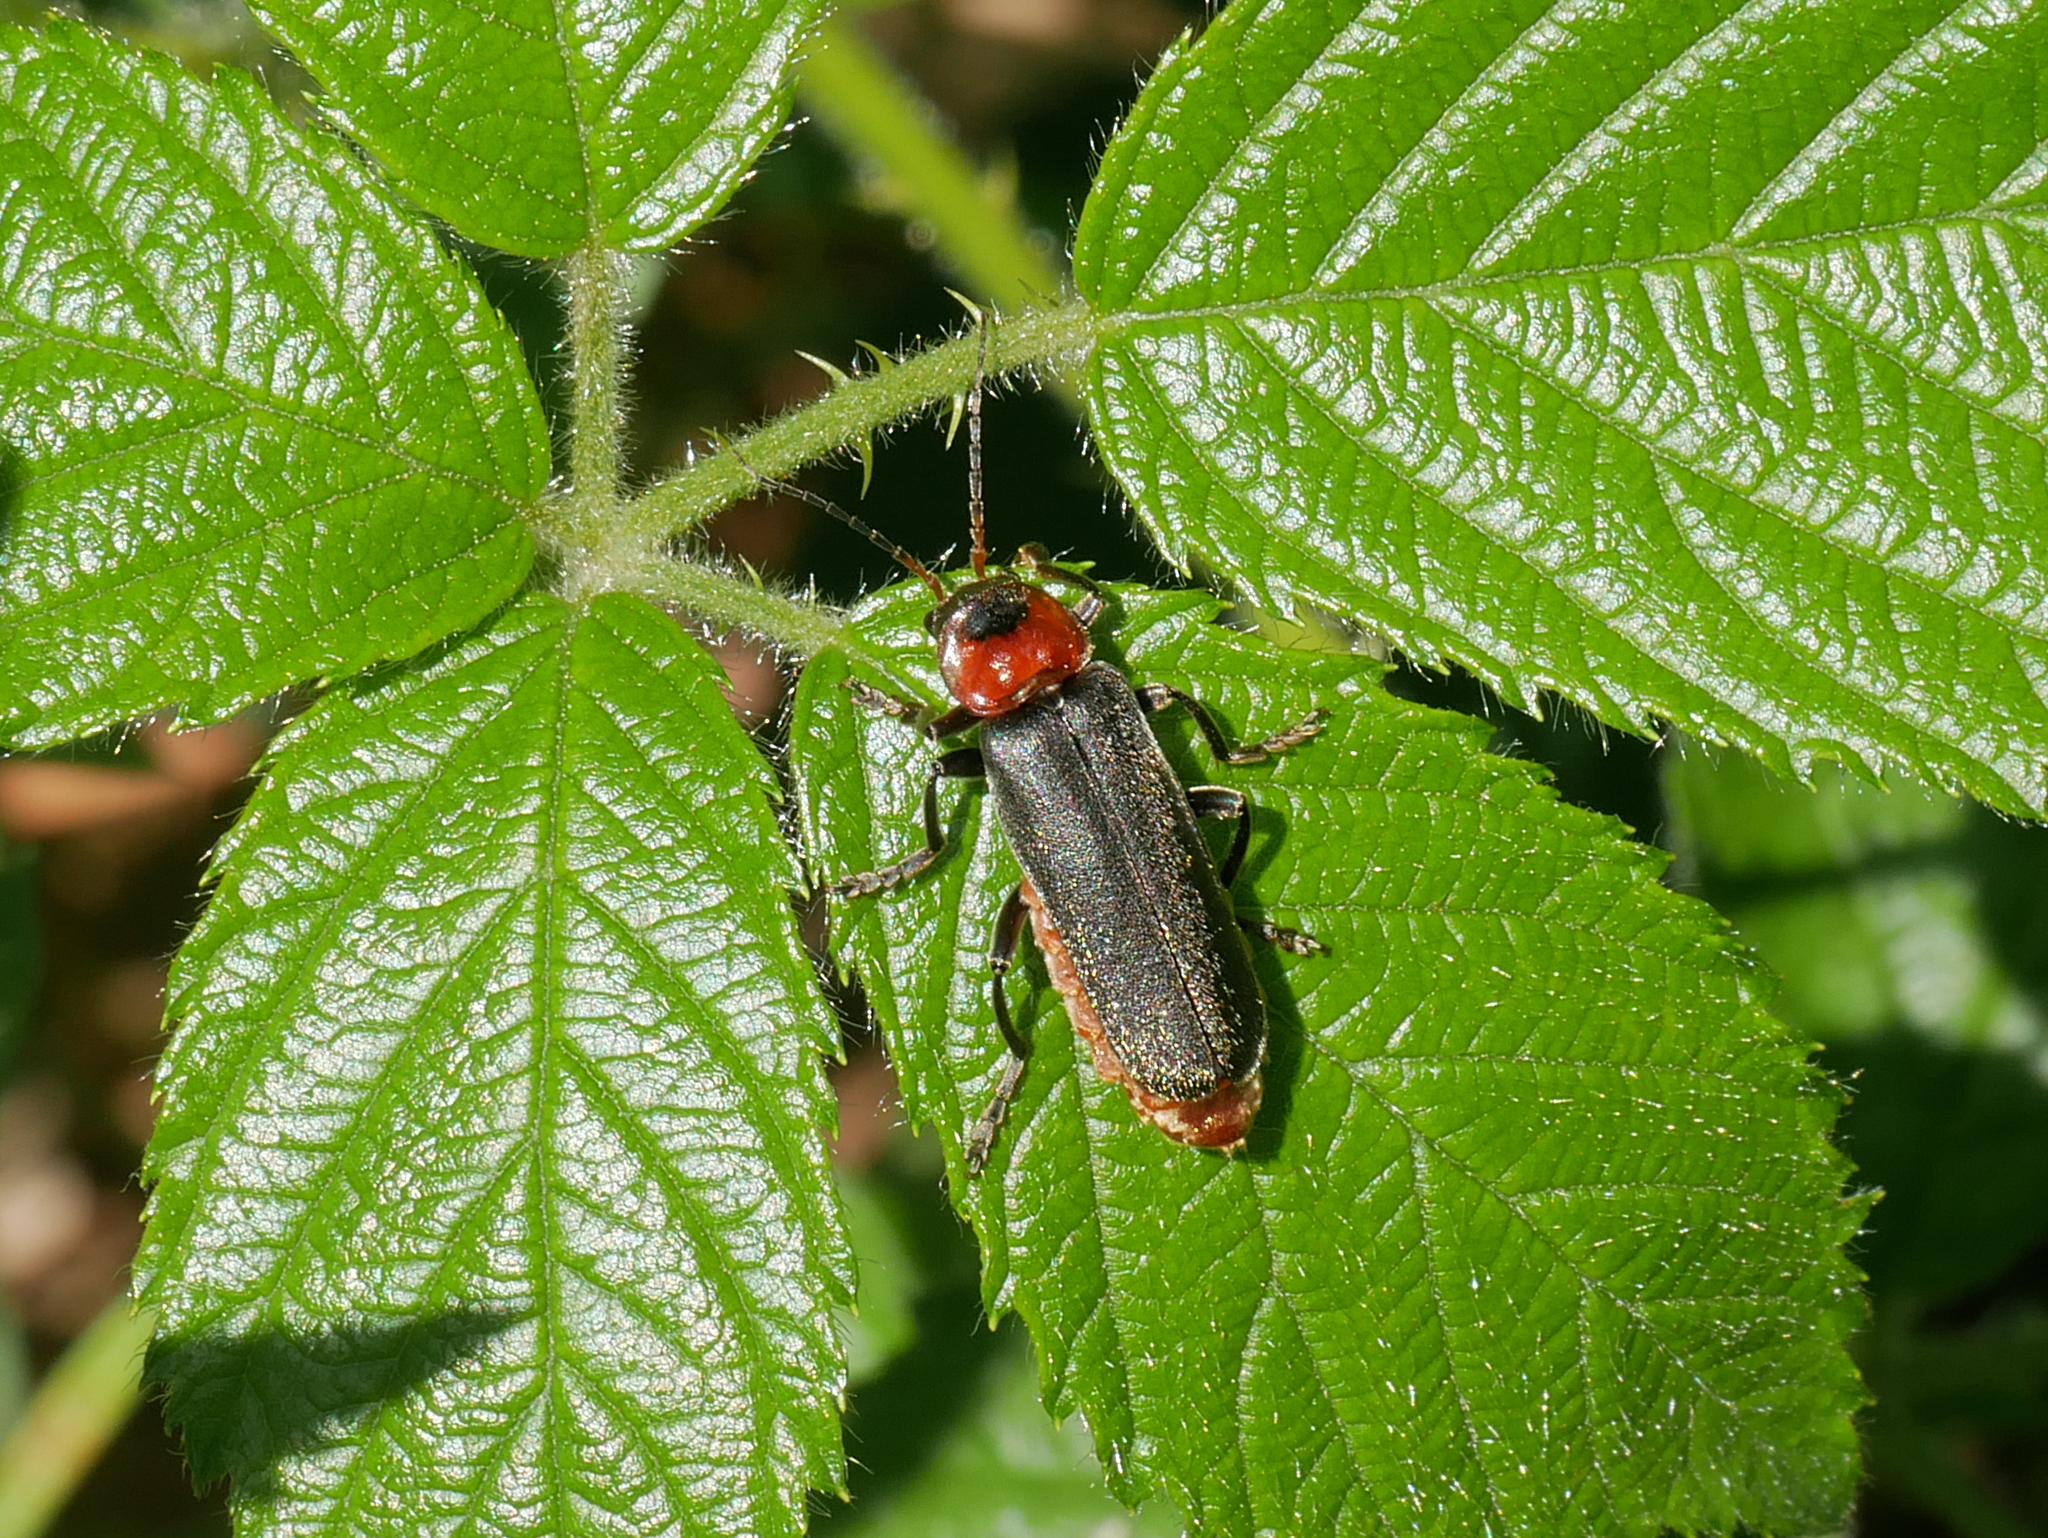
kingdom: Animalia
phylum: Arthropoda
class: Insecta
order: Coleoptera
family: Cantharidae
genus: Cantharis
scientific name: Cantharis fusca
